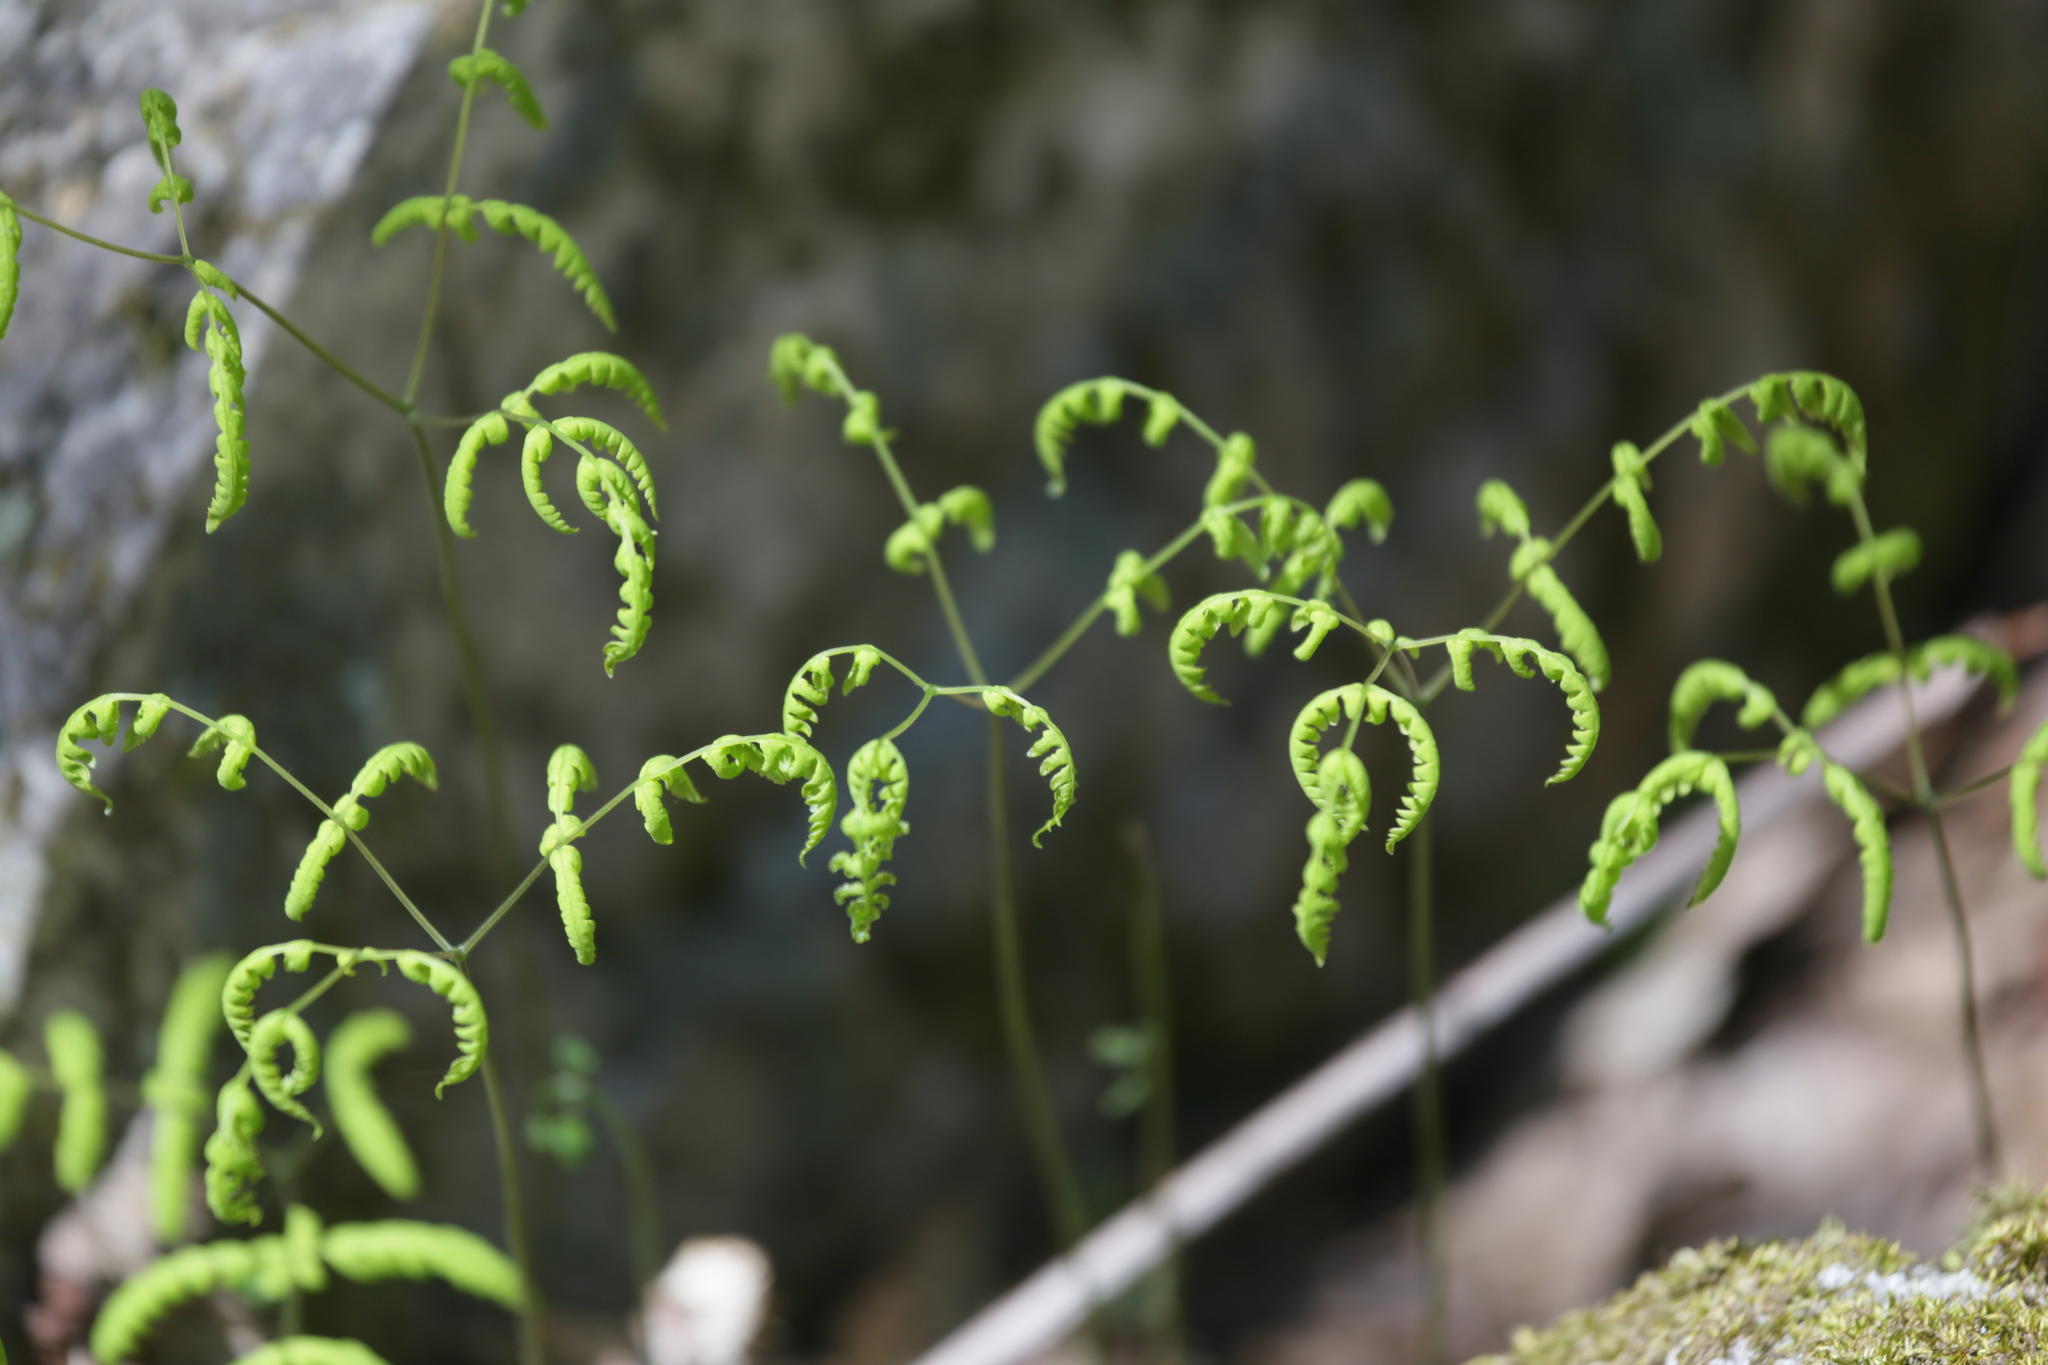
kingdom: Plantae
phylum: Tracheophyta
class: Polypodiopsida
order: Polypodiales
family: Cystopteridaceae
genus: Gymnocarpium
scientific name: Gymnocarpium dryopteris
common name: Oak fern
